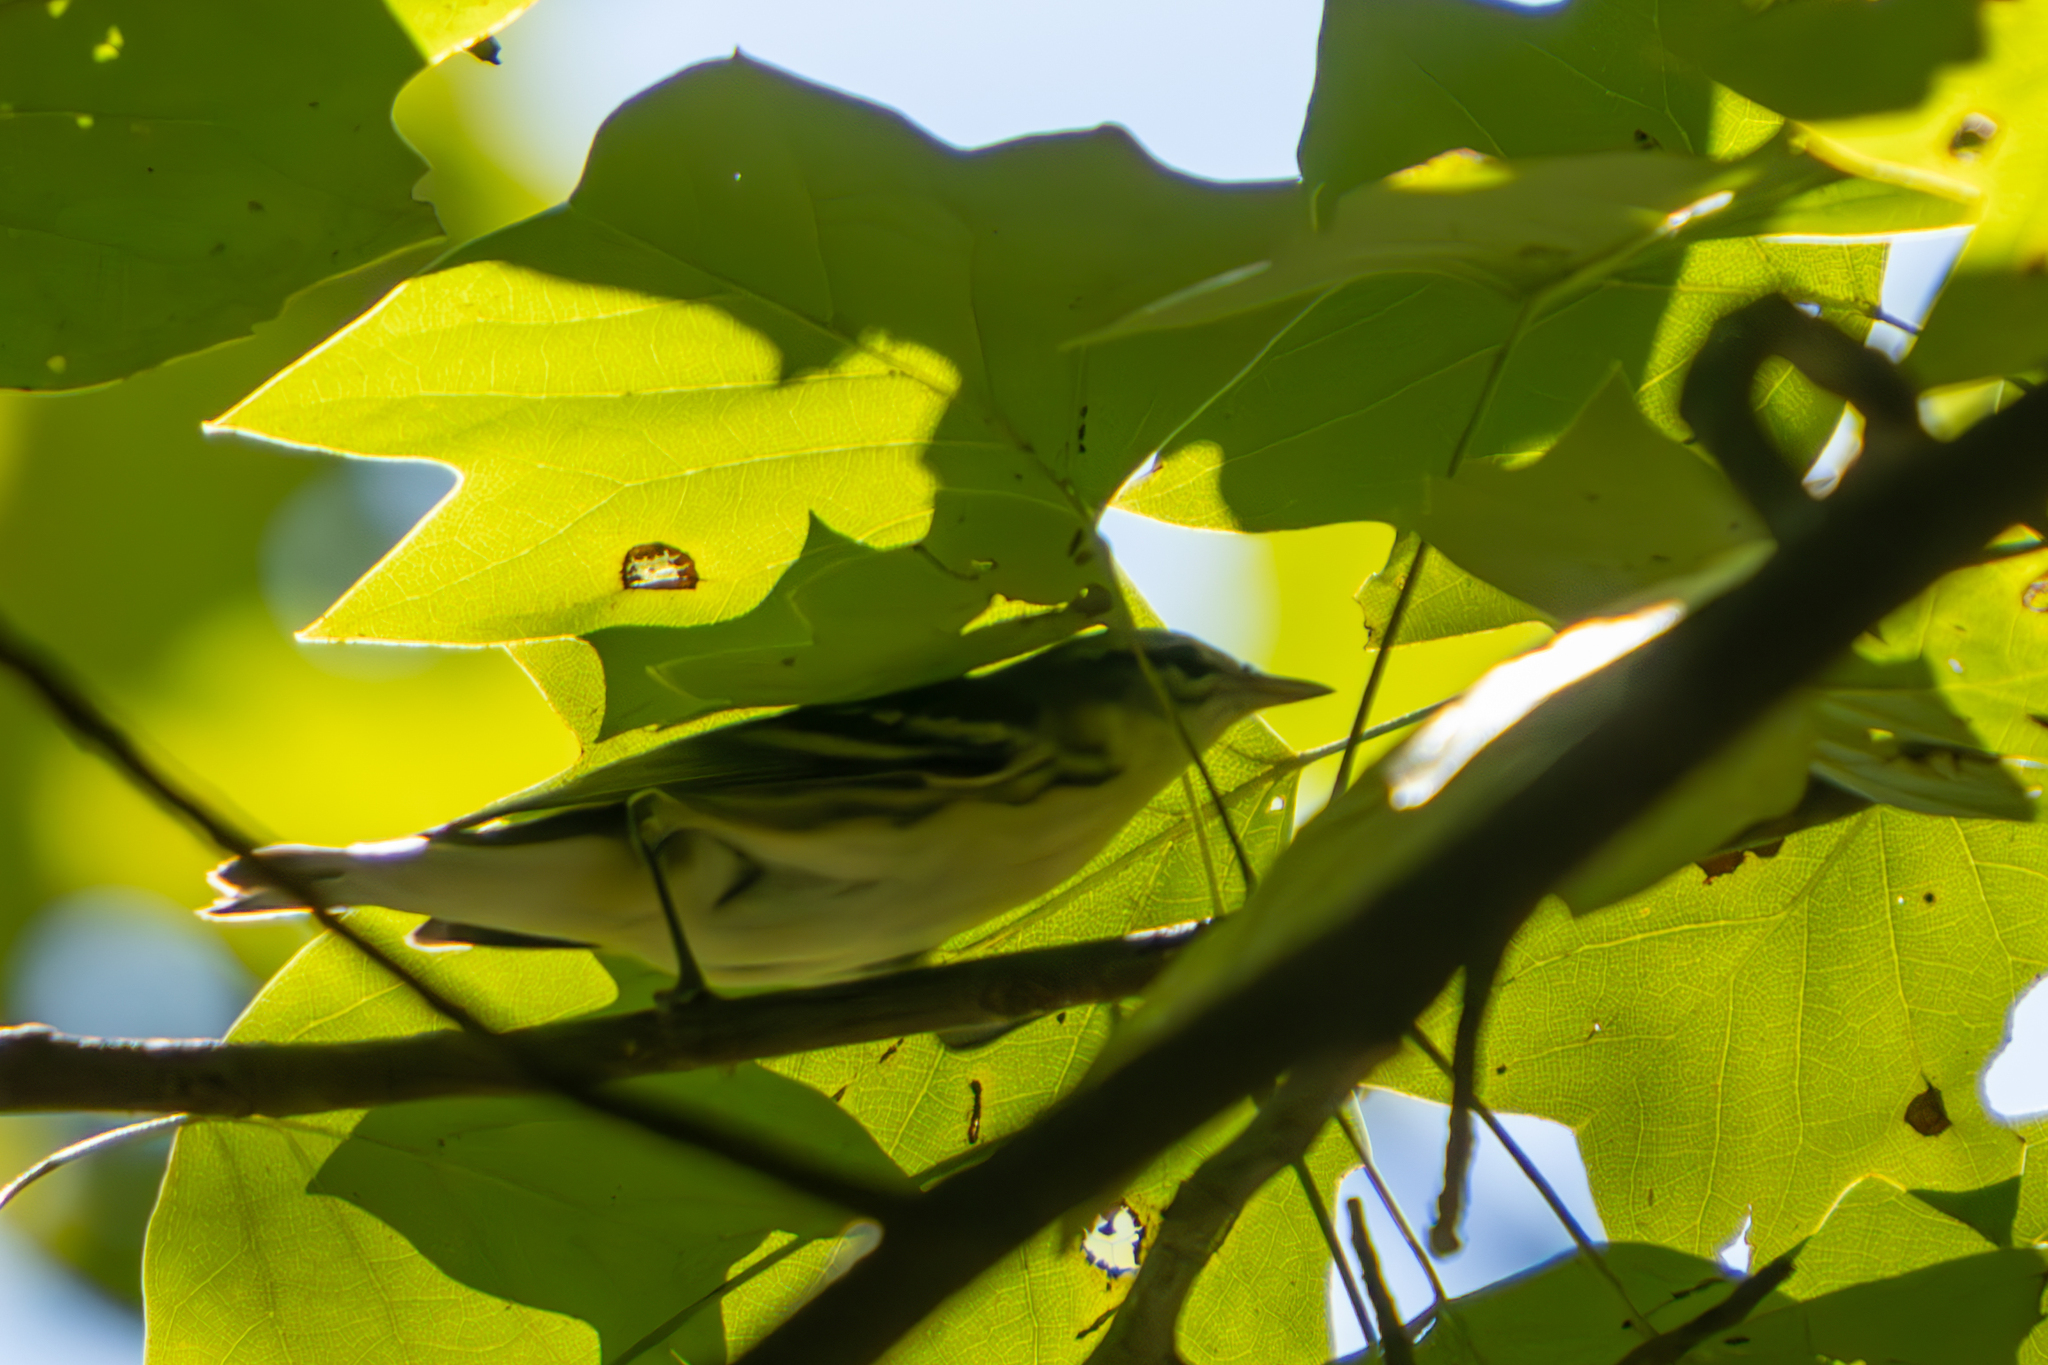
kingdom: Animalia
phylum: Chordata
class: Aves
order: Passeriformes
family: Parulidae
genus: Setophaga
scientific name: Setophaga cerulea
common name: Cerulean warbler
